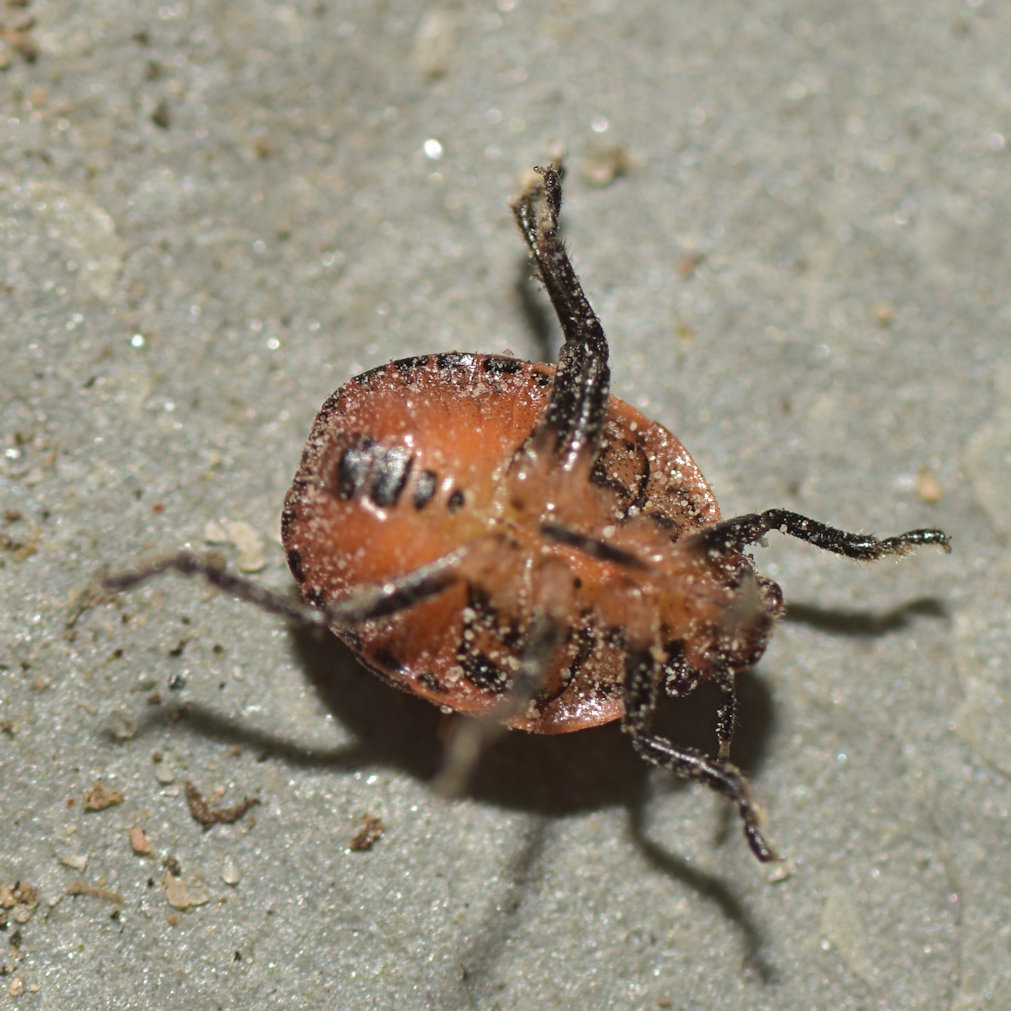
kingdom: Animalia
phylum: Arthropoda
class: Insecta
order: Hemiptera
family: Pentatomidae
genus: Cosmopepla
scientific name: Cosmopepla lintneriana
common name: Twice-stabbed stink bug
